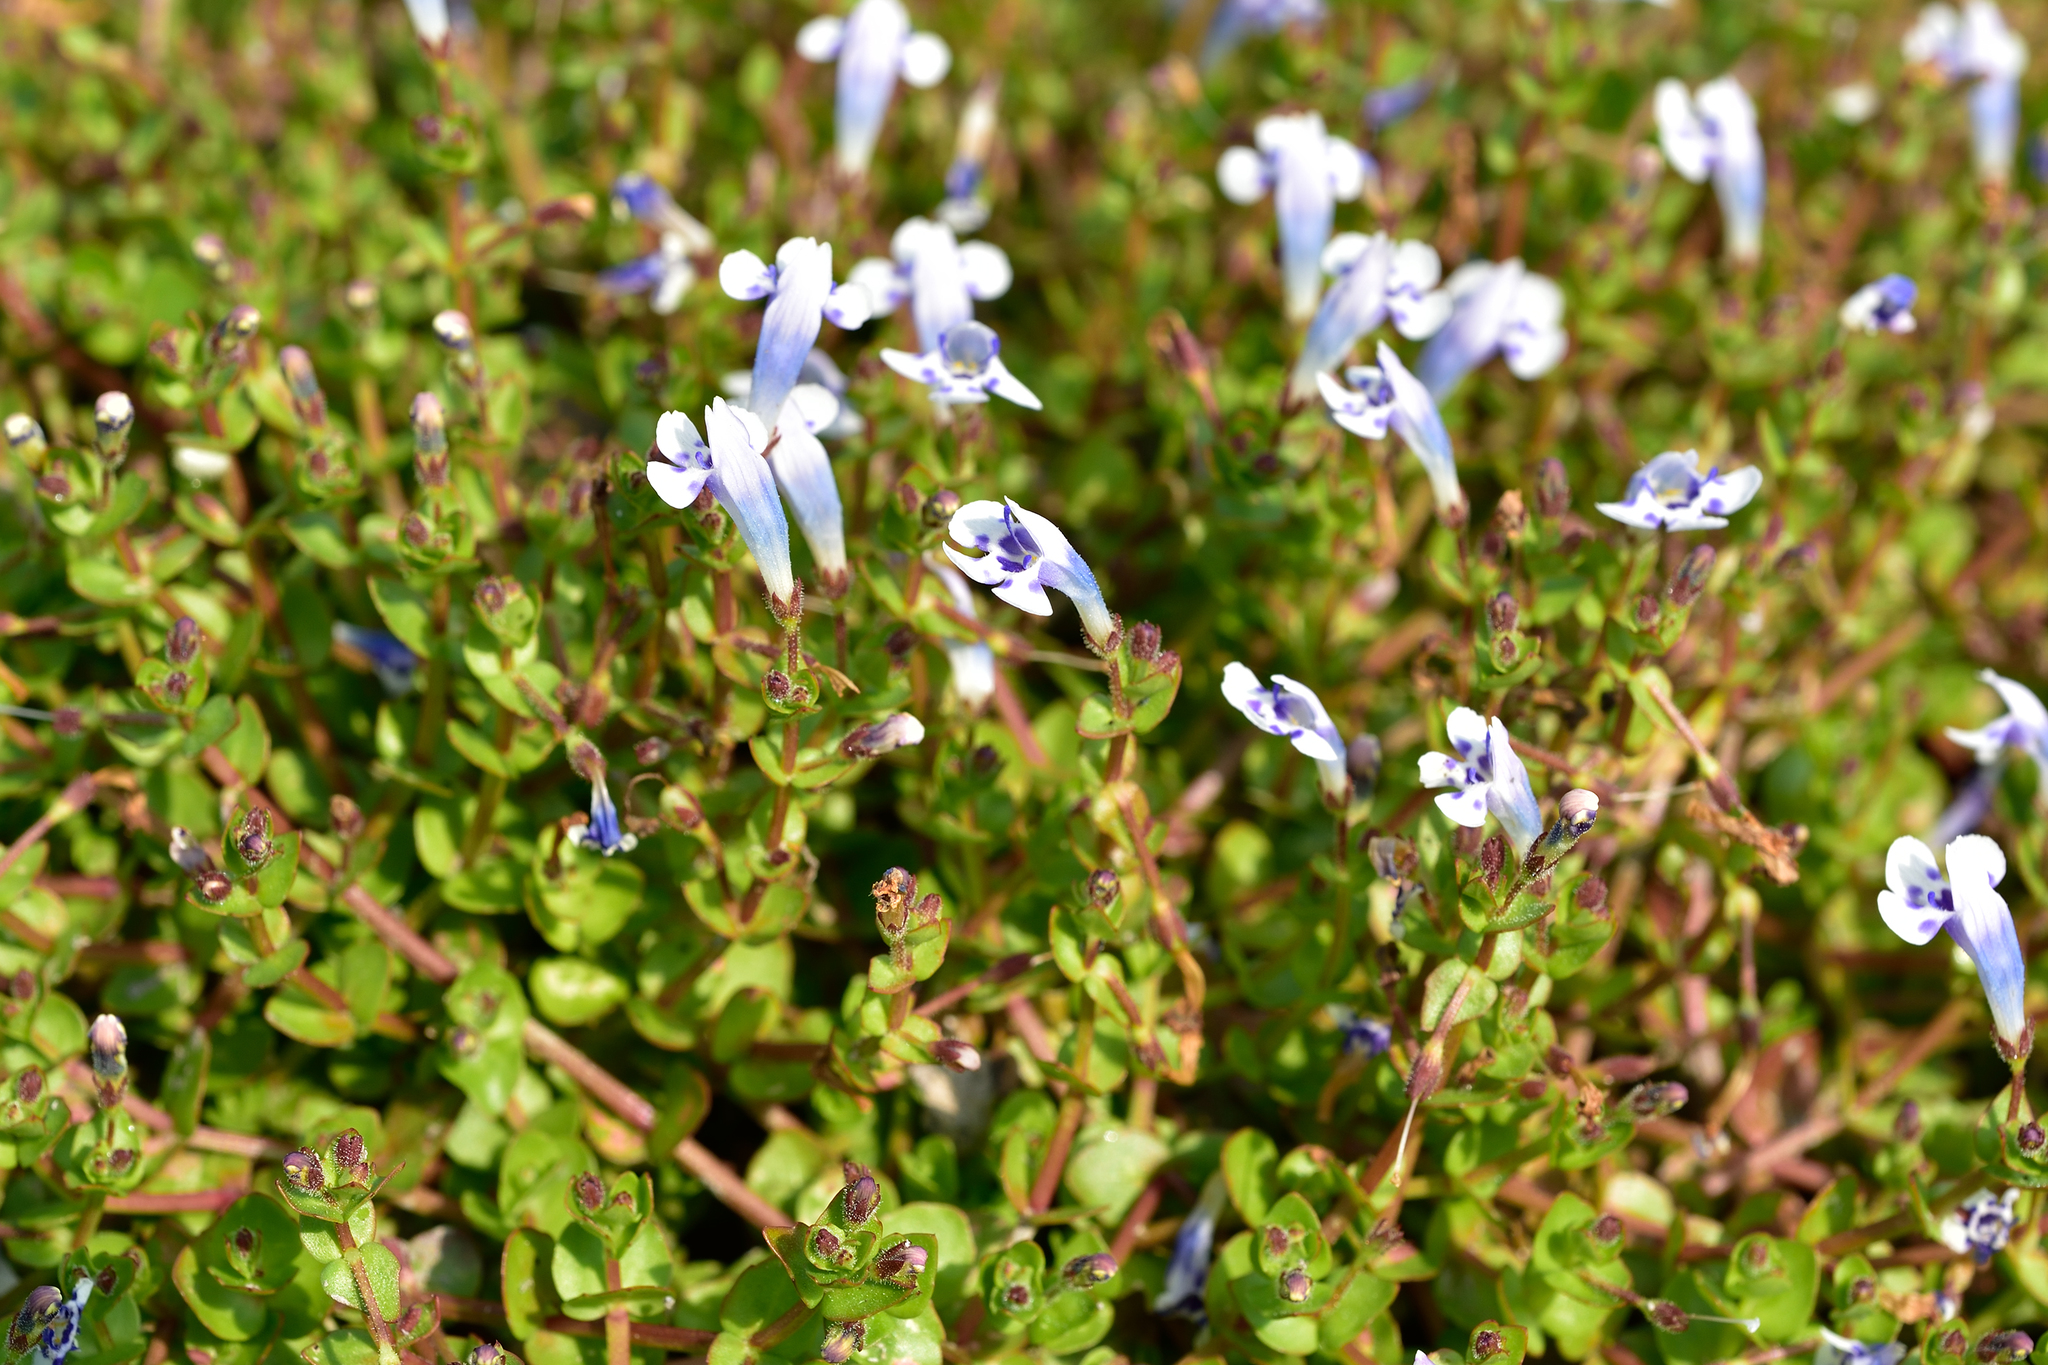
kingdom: Plantae
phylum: Tracheophyta
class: Magnoliopsida
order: Lamiales
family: Linderniaceae
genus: Lindernia
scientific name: Lindernia rotundifolia
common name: Baby’s tears
